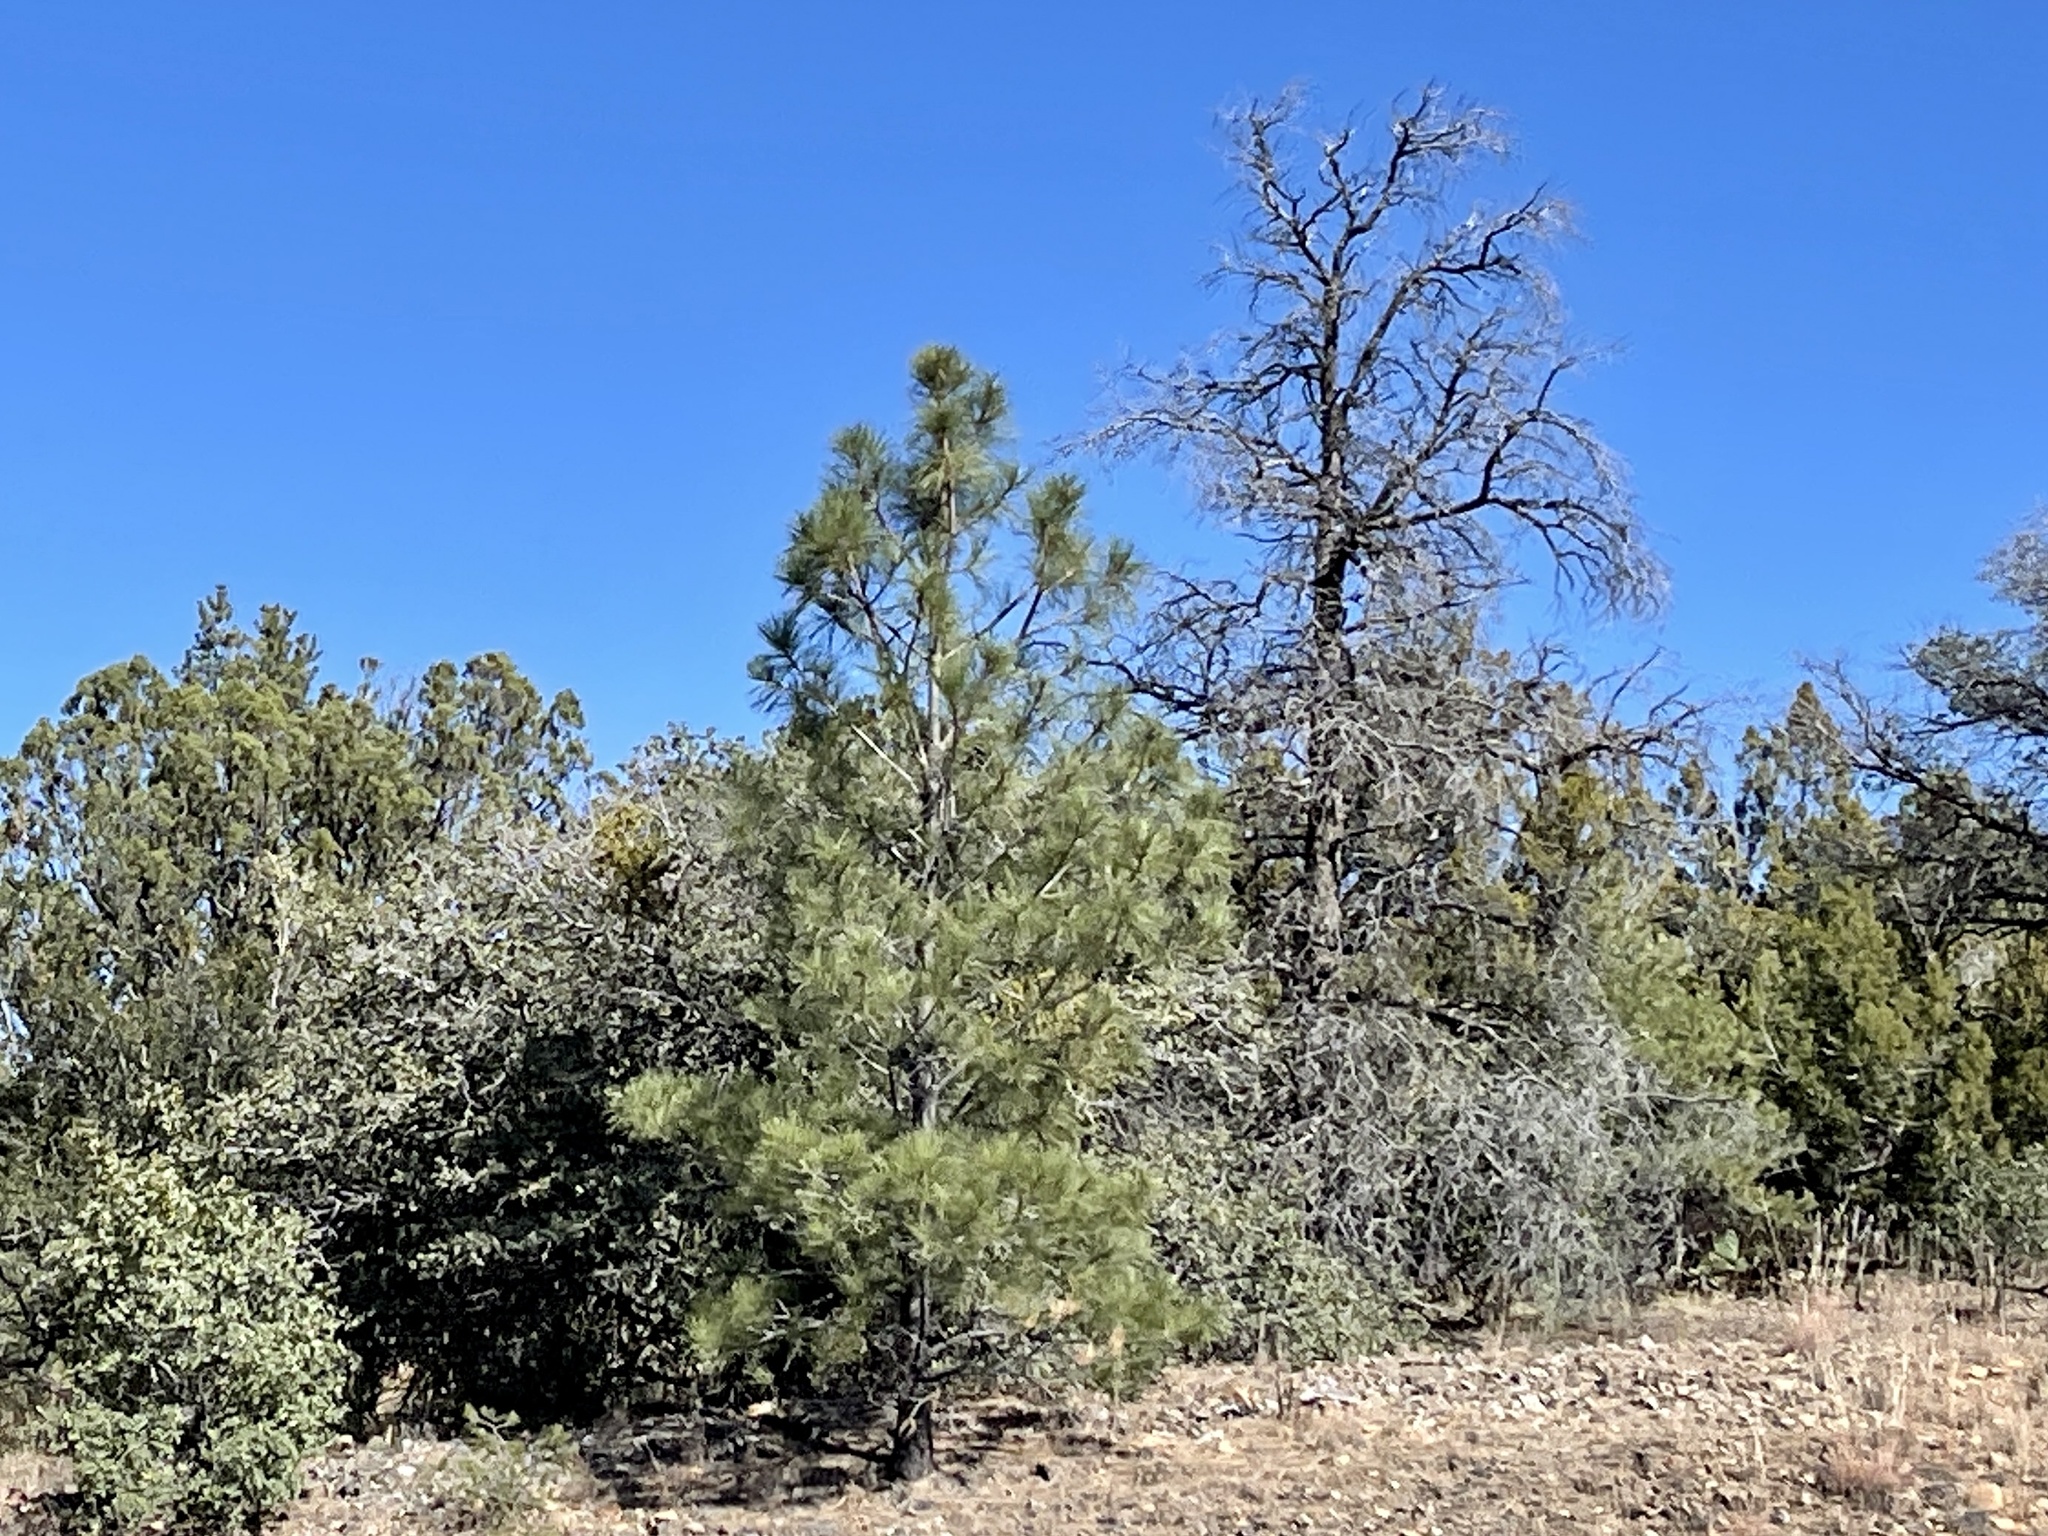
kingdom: Plantae
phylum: Tracheophyta
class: Pinopsida
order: Pinales
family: Pinaceae
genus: Pinus
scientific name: Pinus ponderosa
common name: Western yellow-pine
